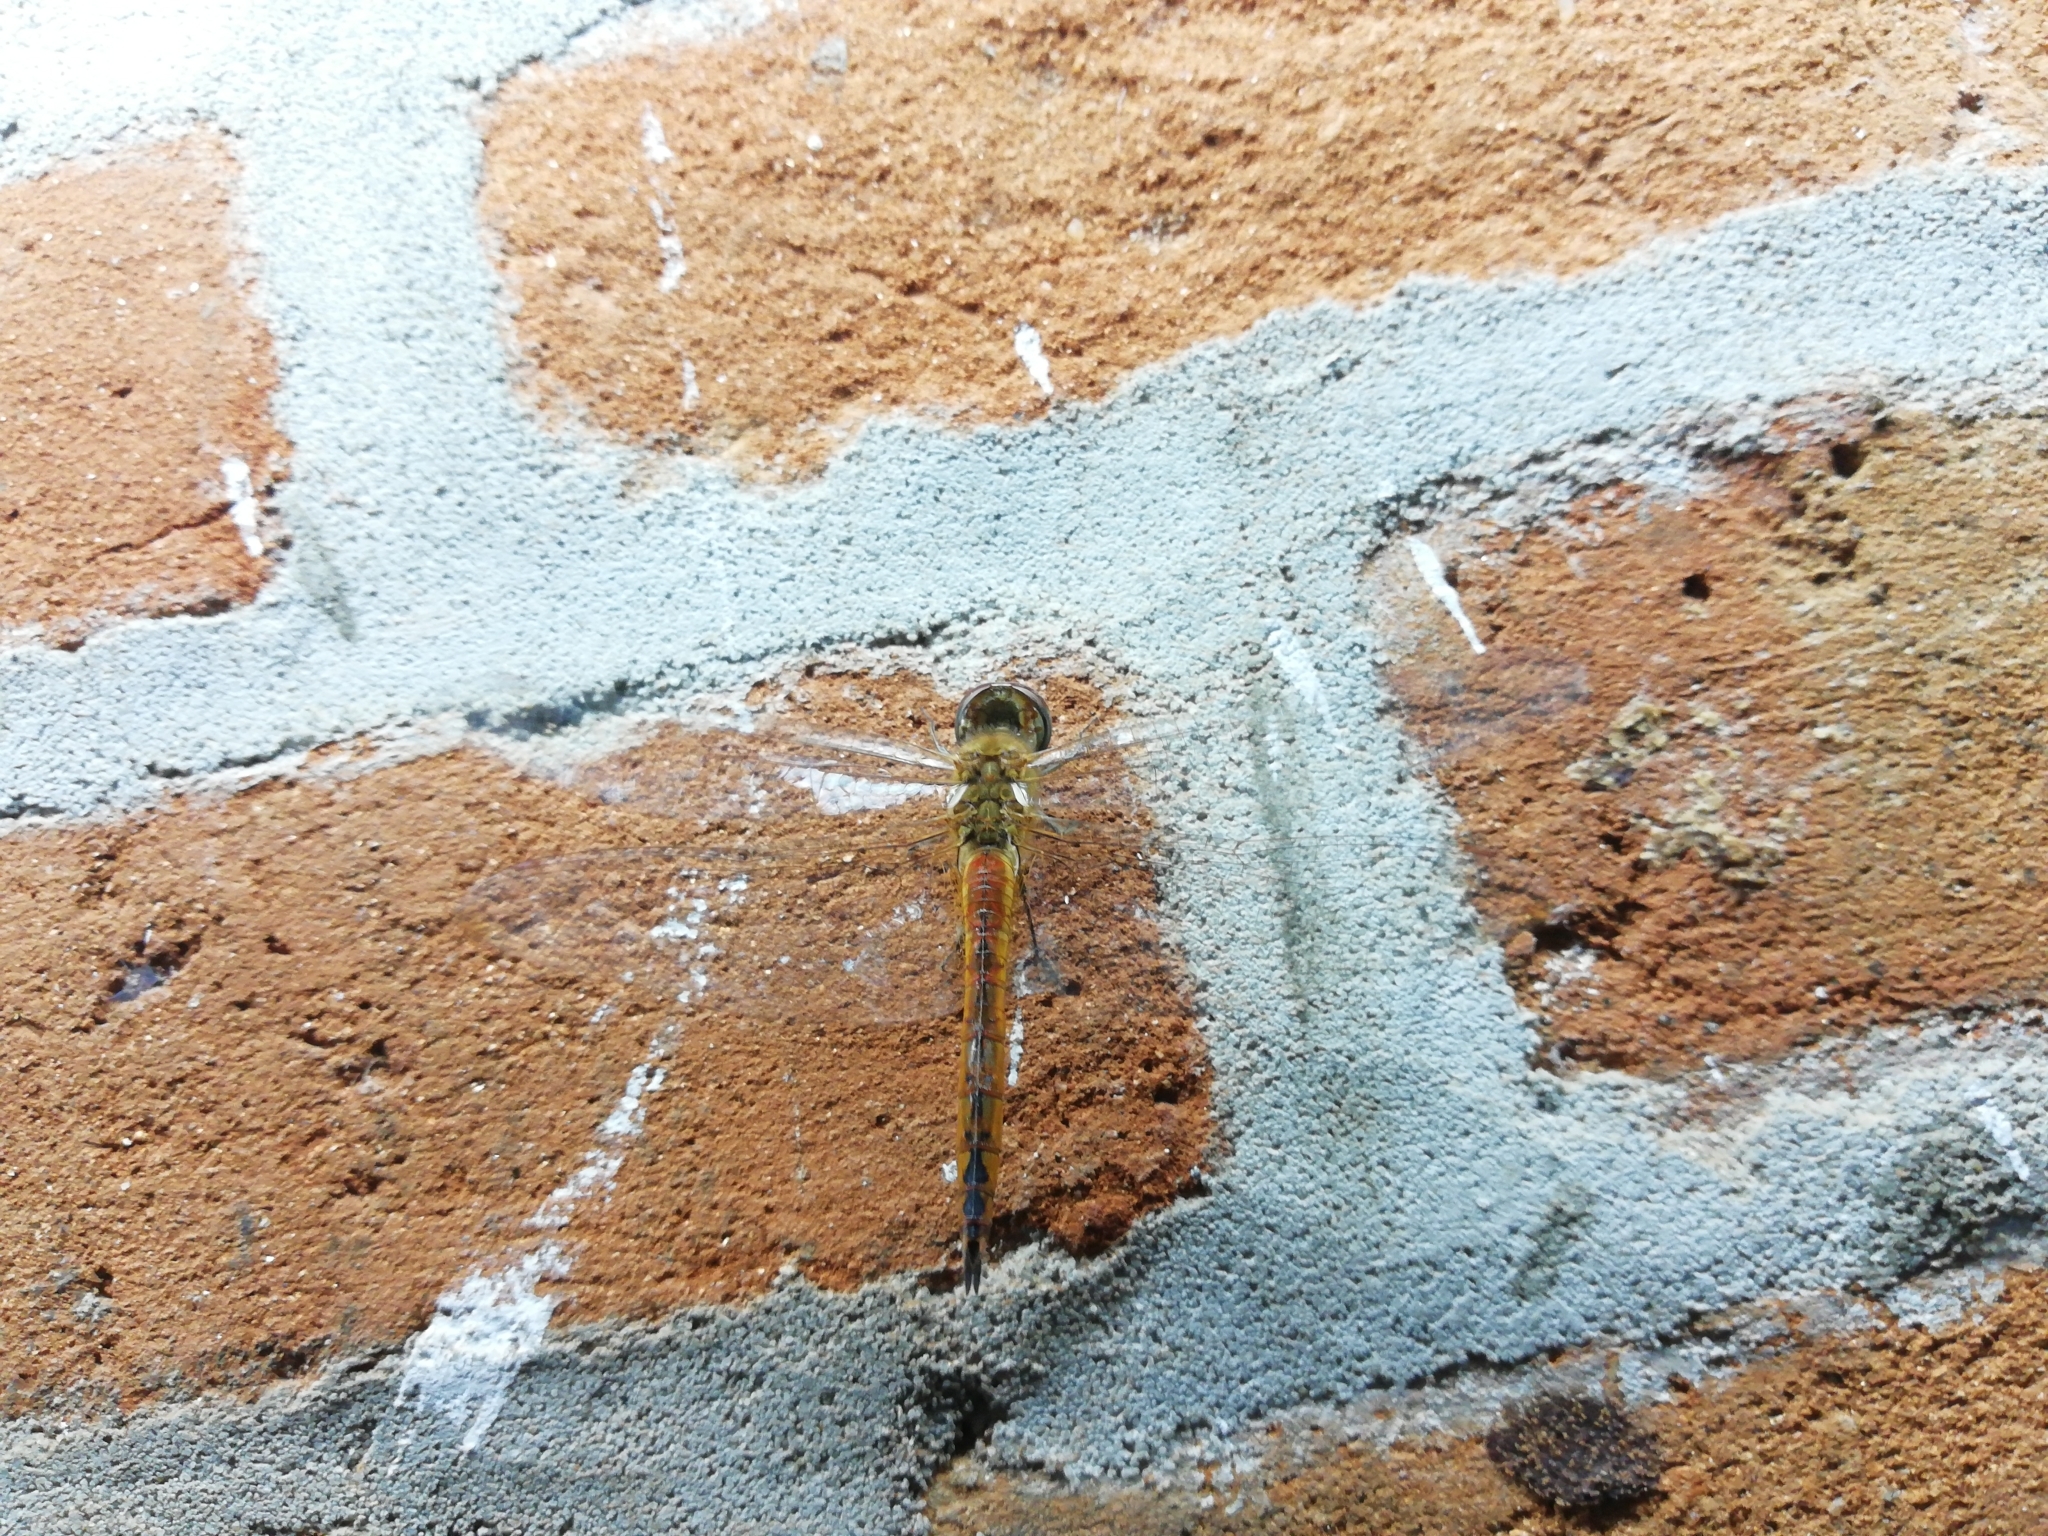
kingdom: Animalia
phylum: Arthropoda
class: Insecta
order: Odonata
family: Libellulidae
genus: Pantala
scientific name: Pantala flavescens
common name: Wandering glider
